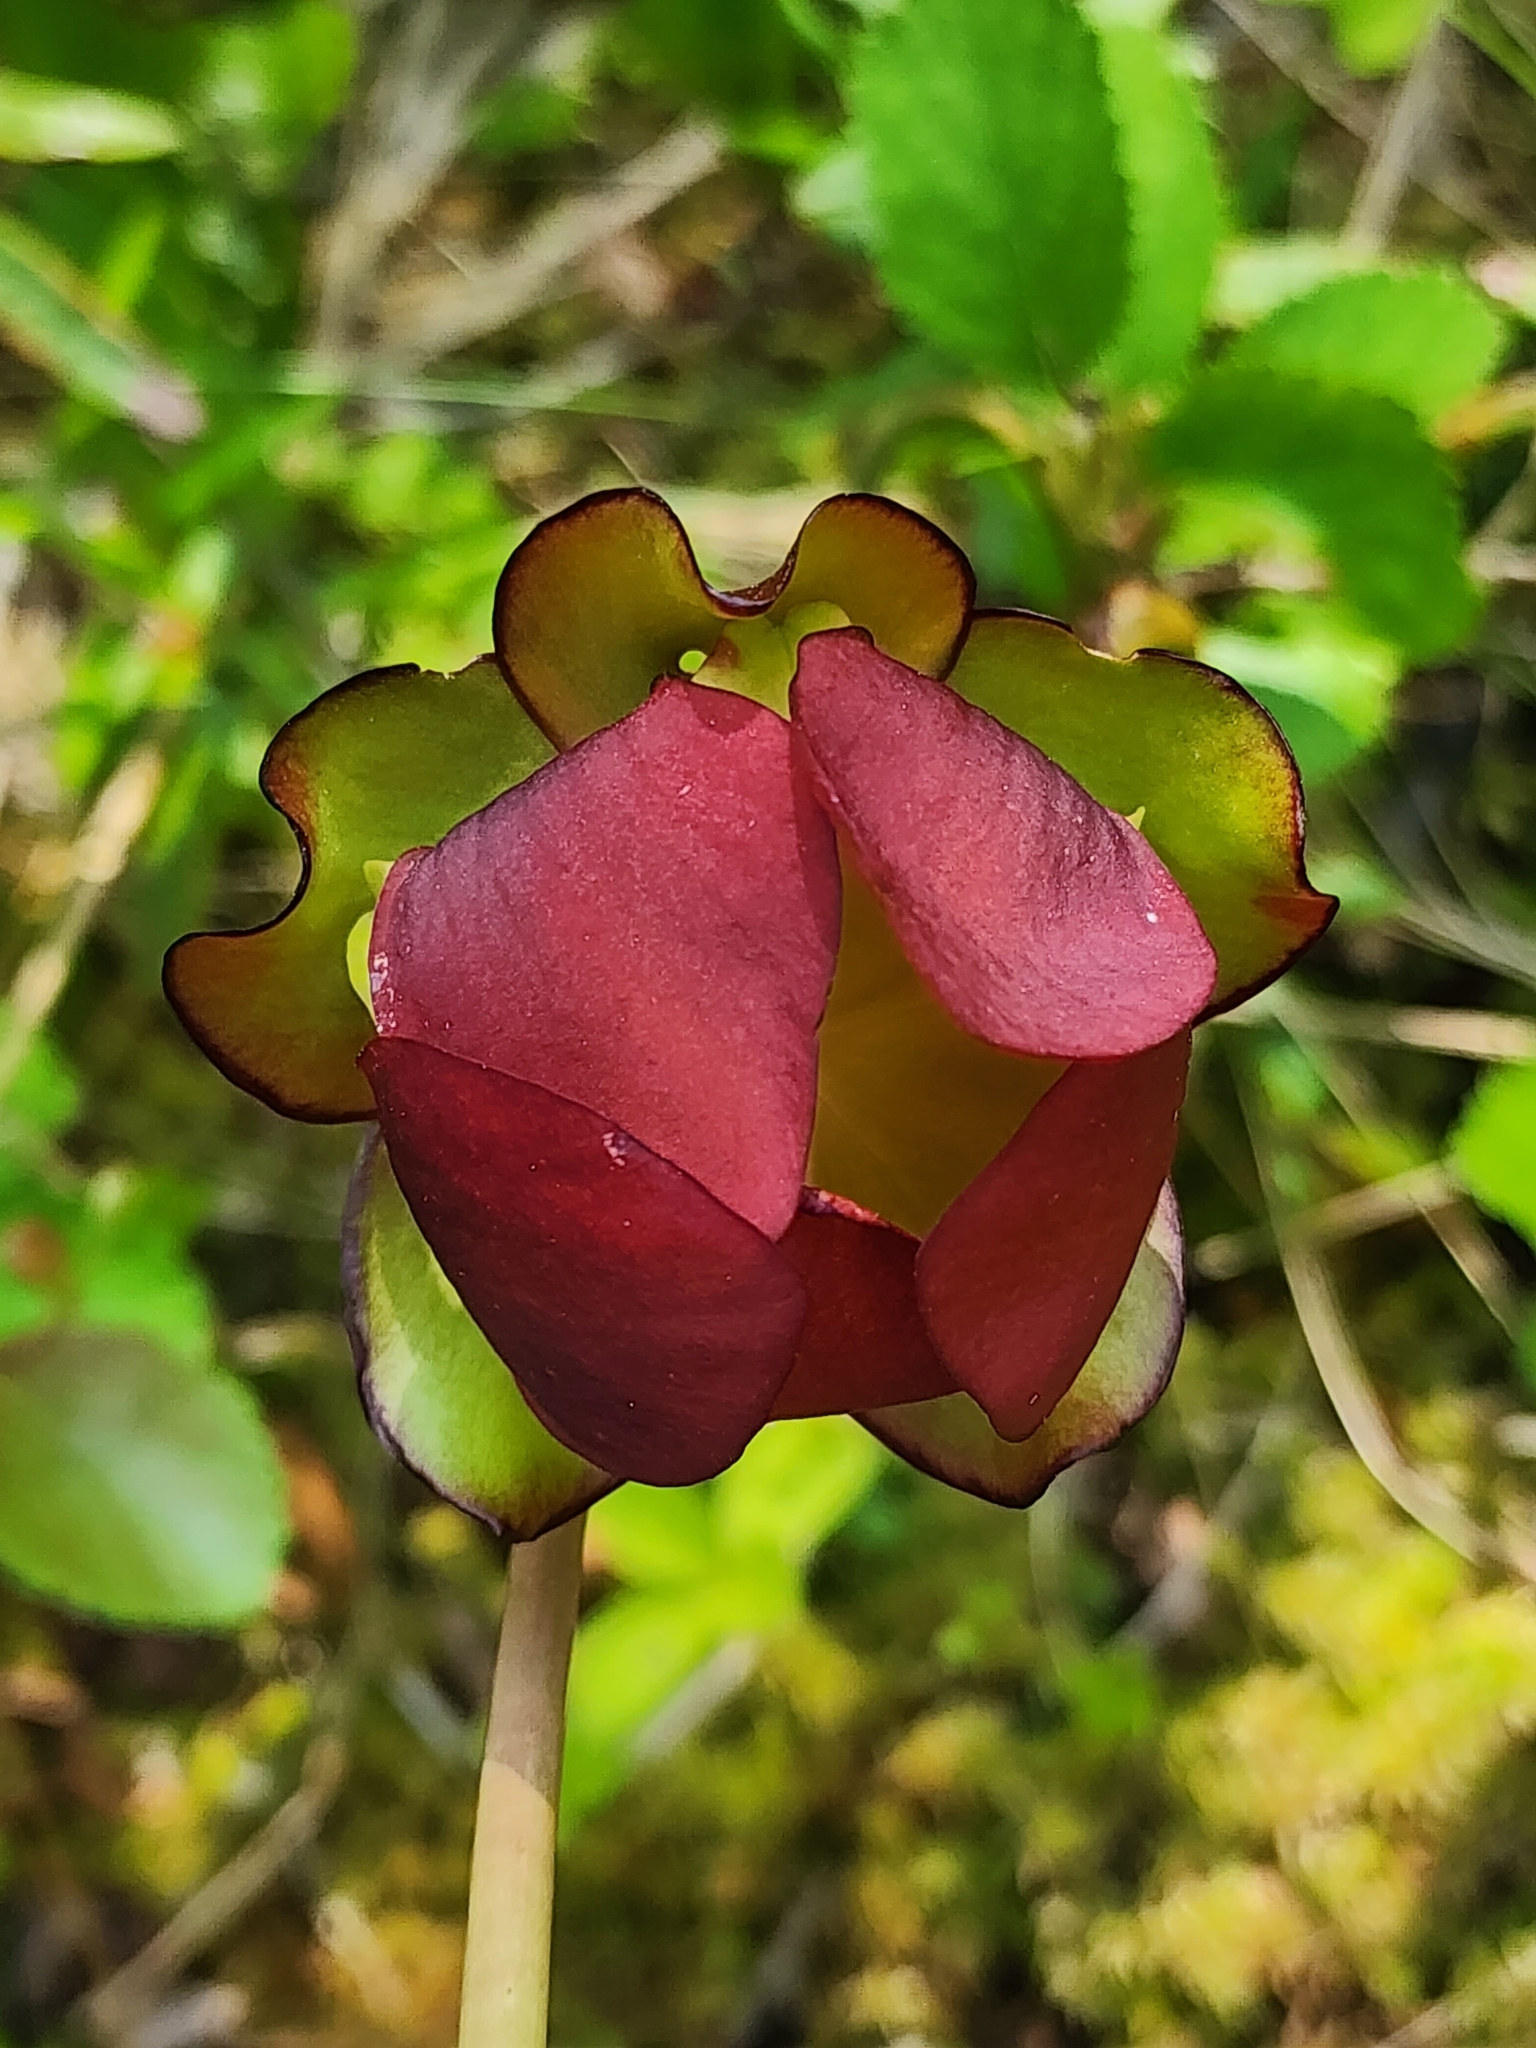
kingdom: Plantae
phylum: Tracheophyta
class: Magnoliopsida
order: Ericales
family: Sarraceniaceae
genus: Sarracenia
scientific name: Sarracenia purpurea
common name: Pitcherplant
